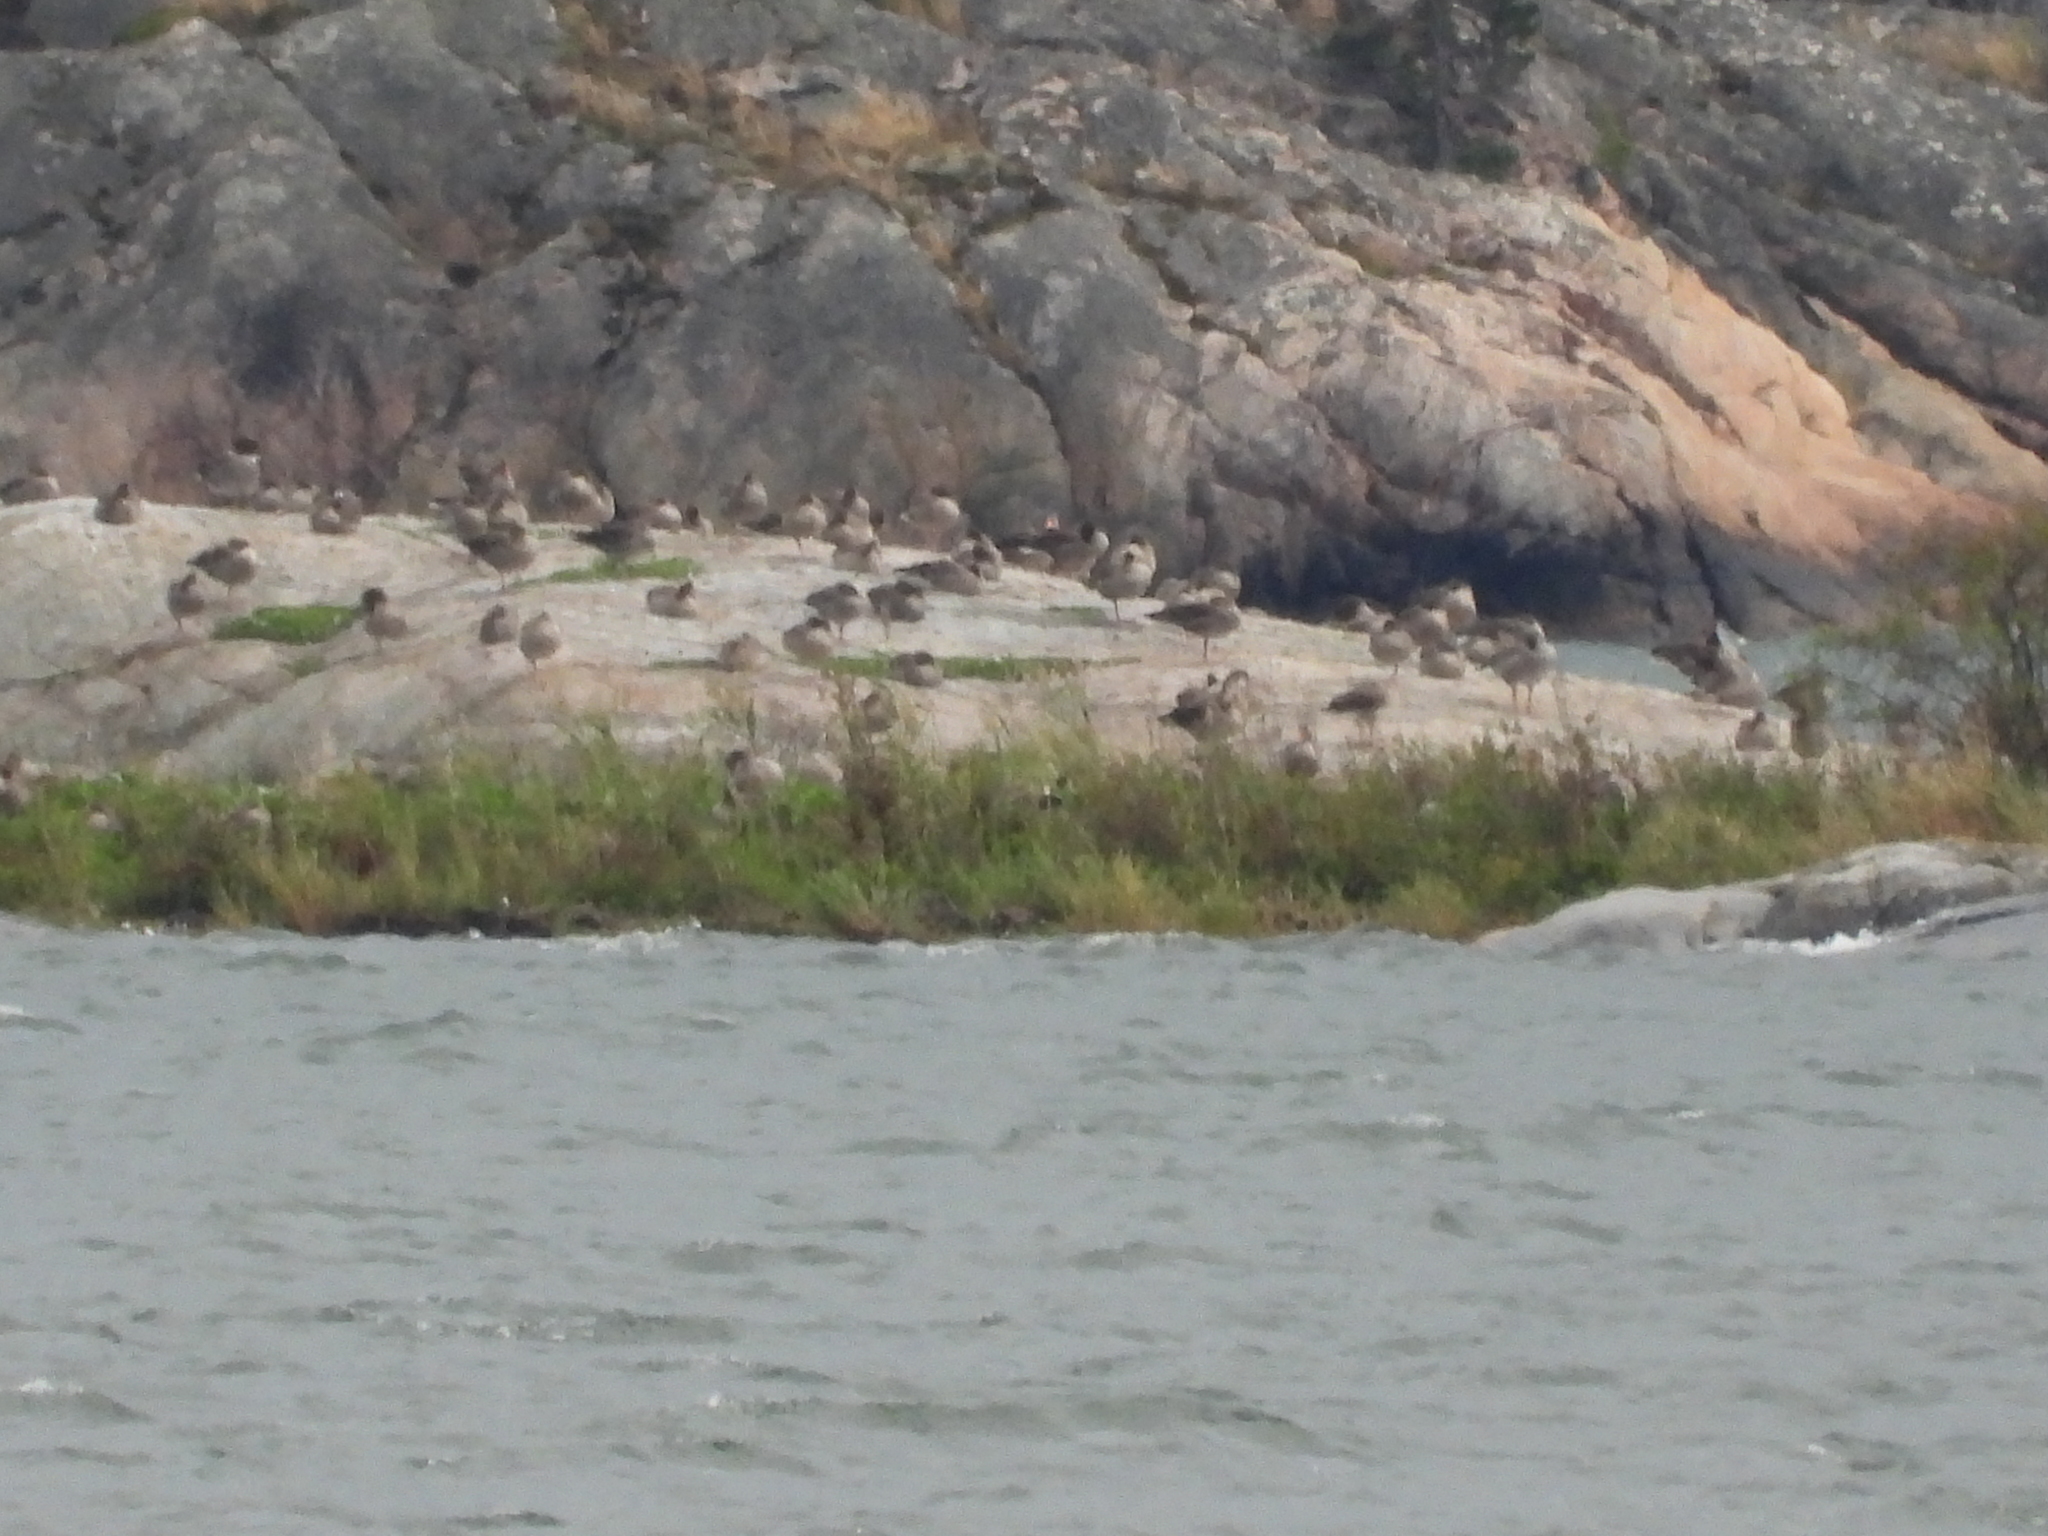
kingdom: Animalia
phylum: Chordata
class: Aves
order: Anseriformes
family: Anatidae
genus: Anser
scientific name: Anser anser
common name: Greylag goose
